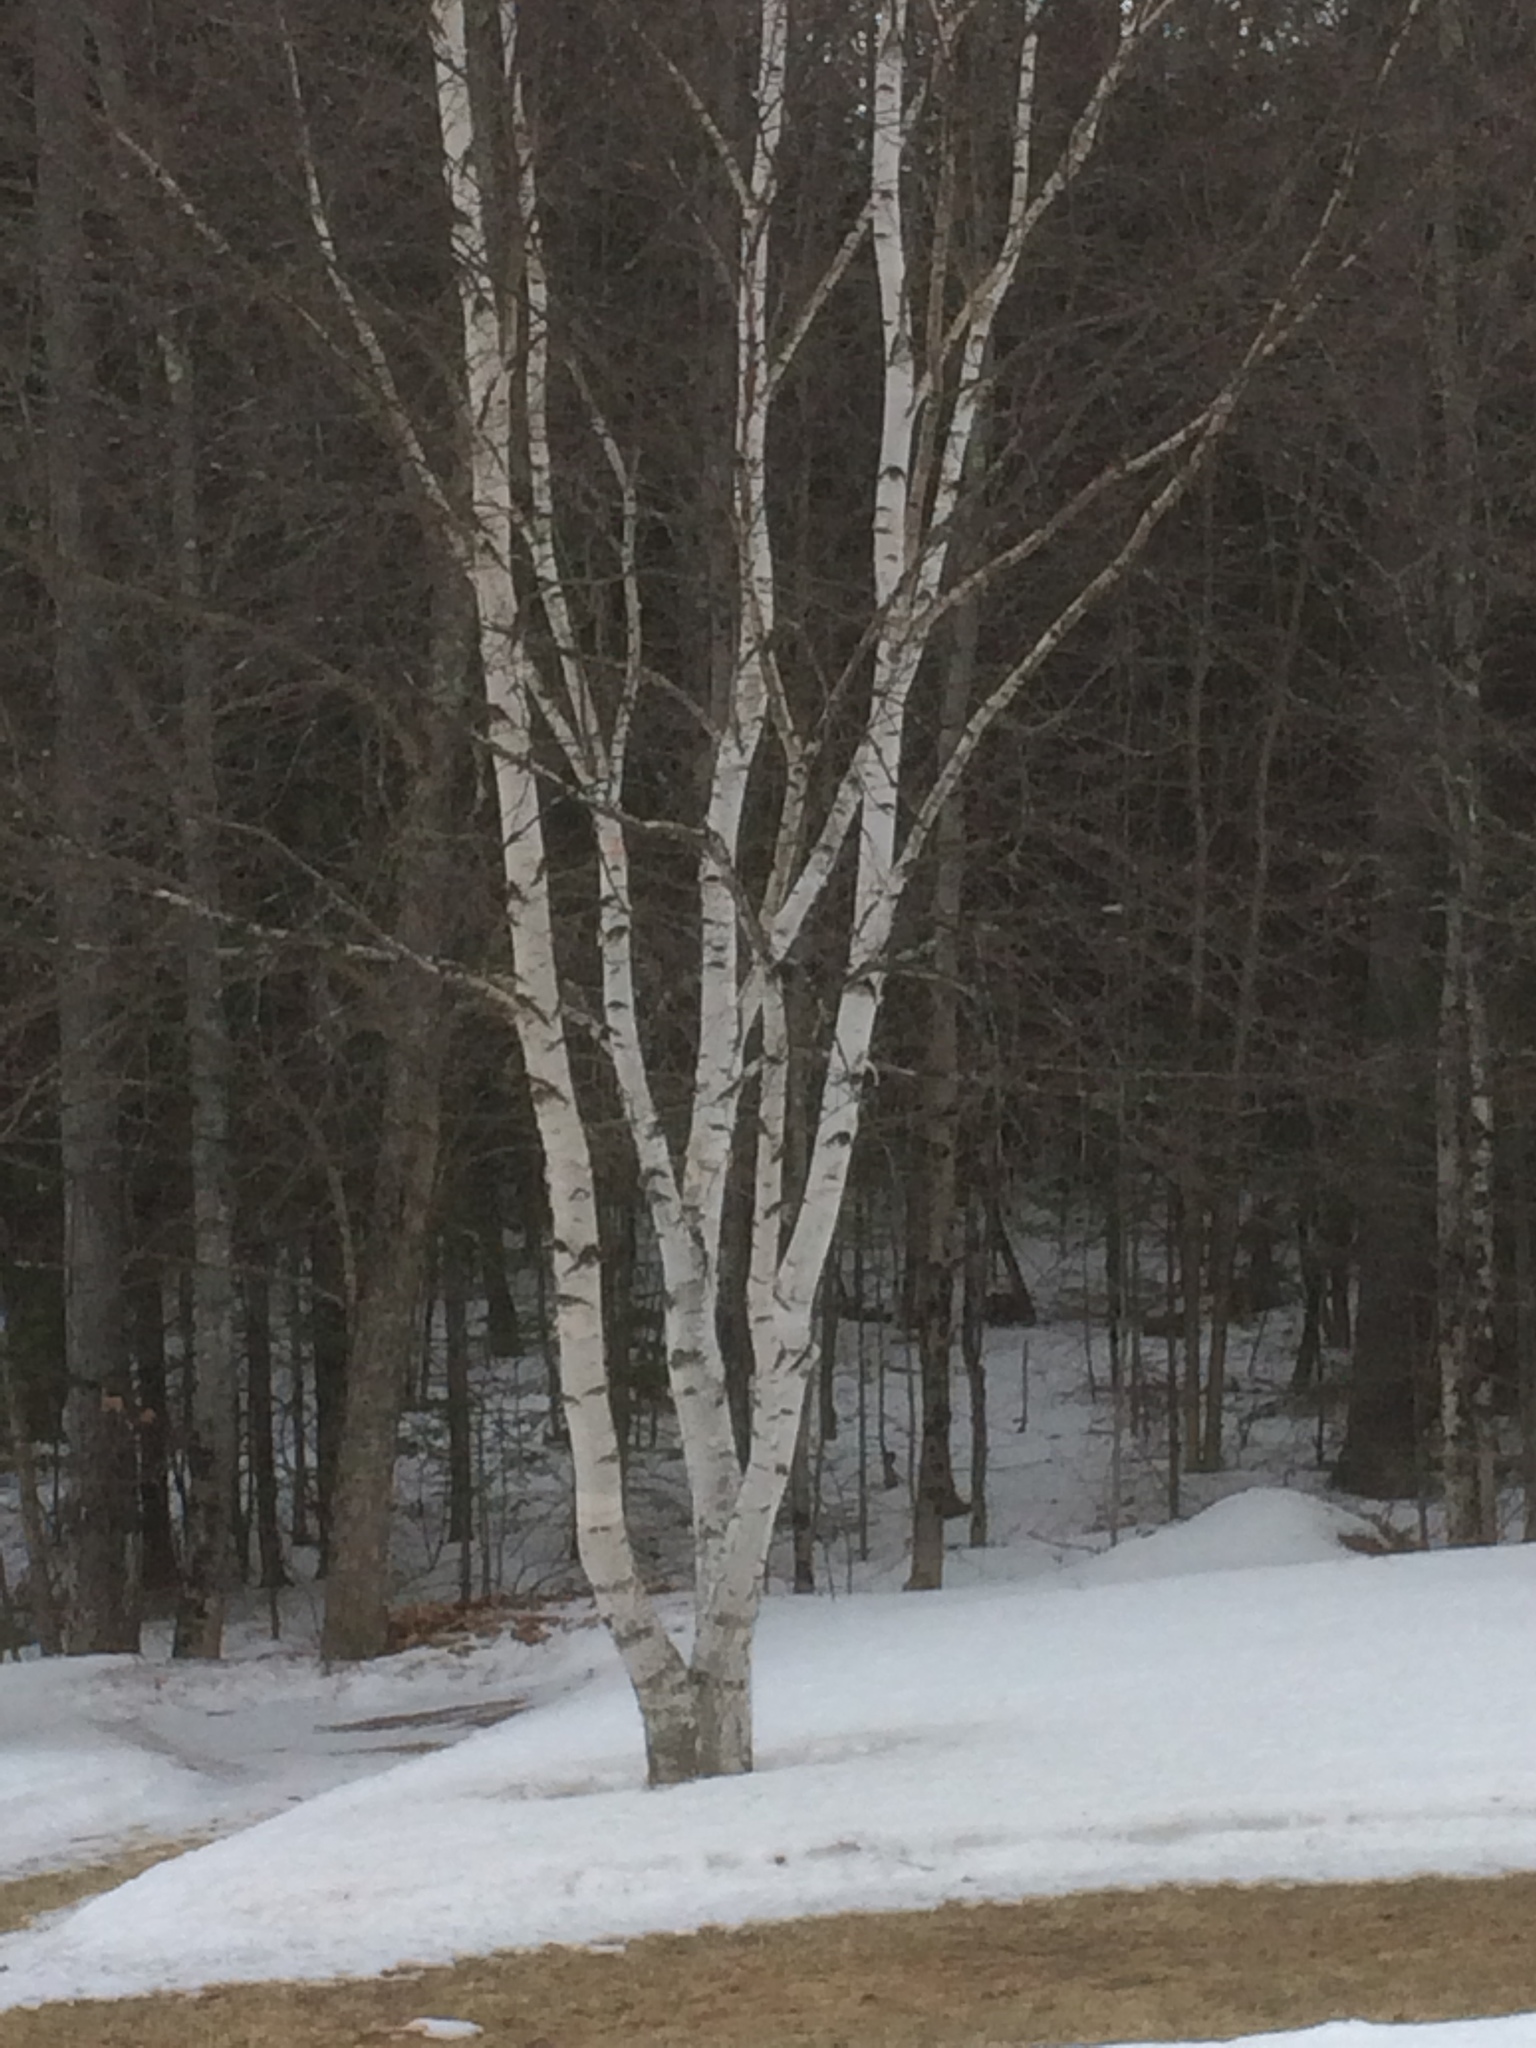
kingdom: Plantae
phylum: Tracheophyta
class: Magnoliopsida
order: Fagales
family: Betulaceae
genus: Betula
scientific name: Betula papyrifera
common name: Paper birch
